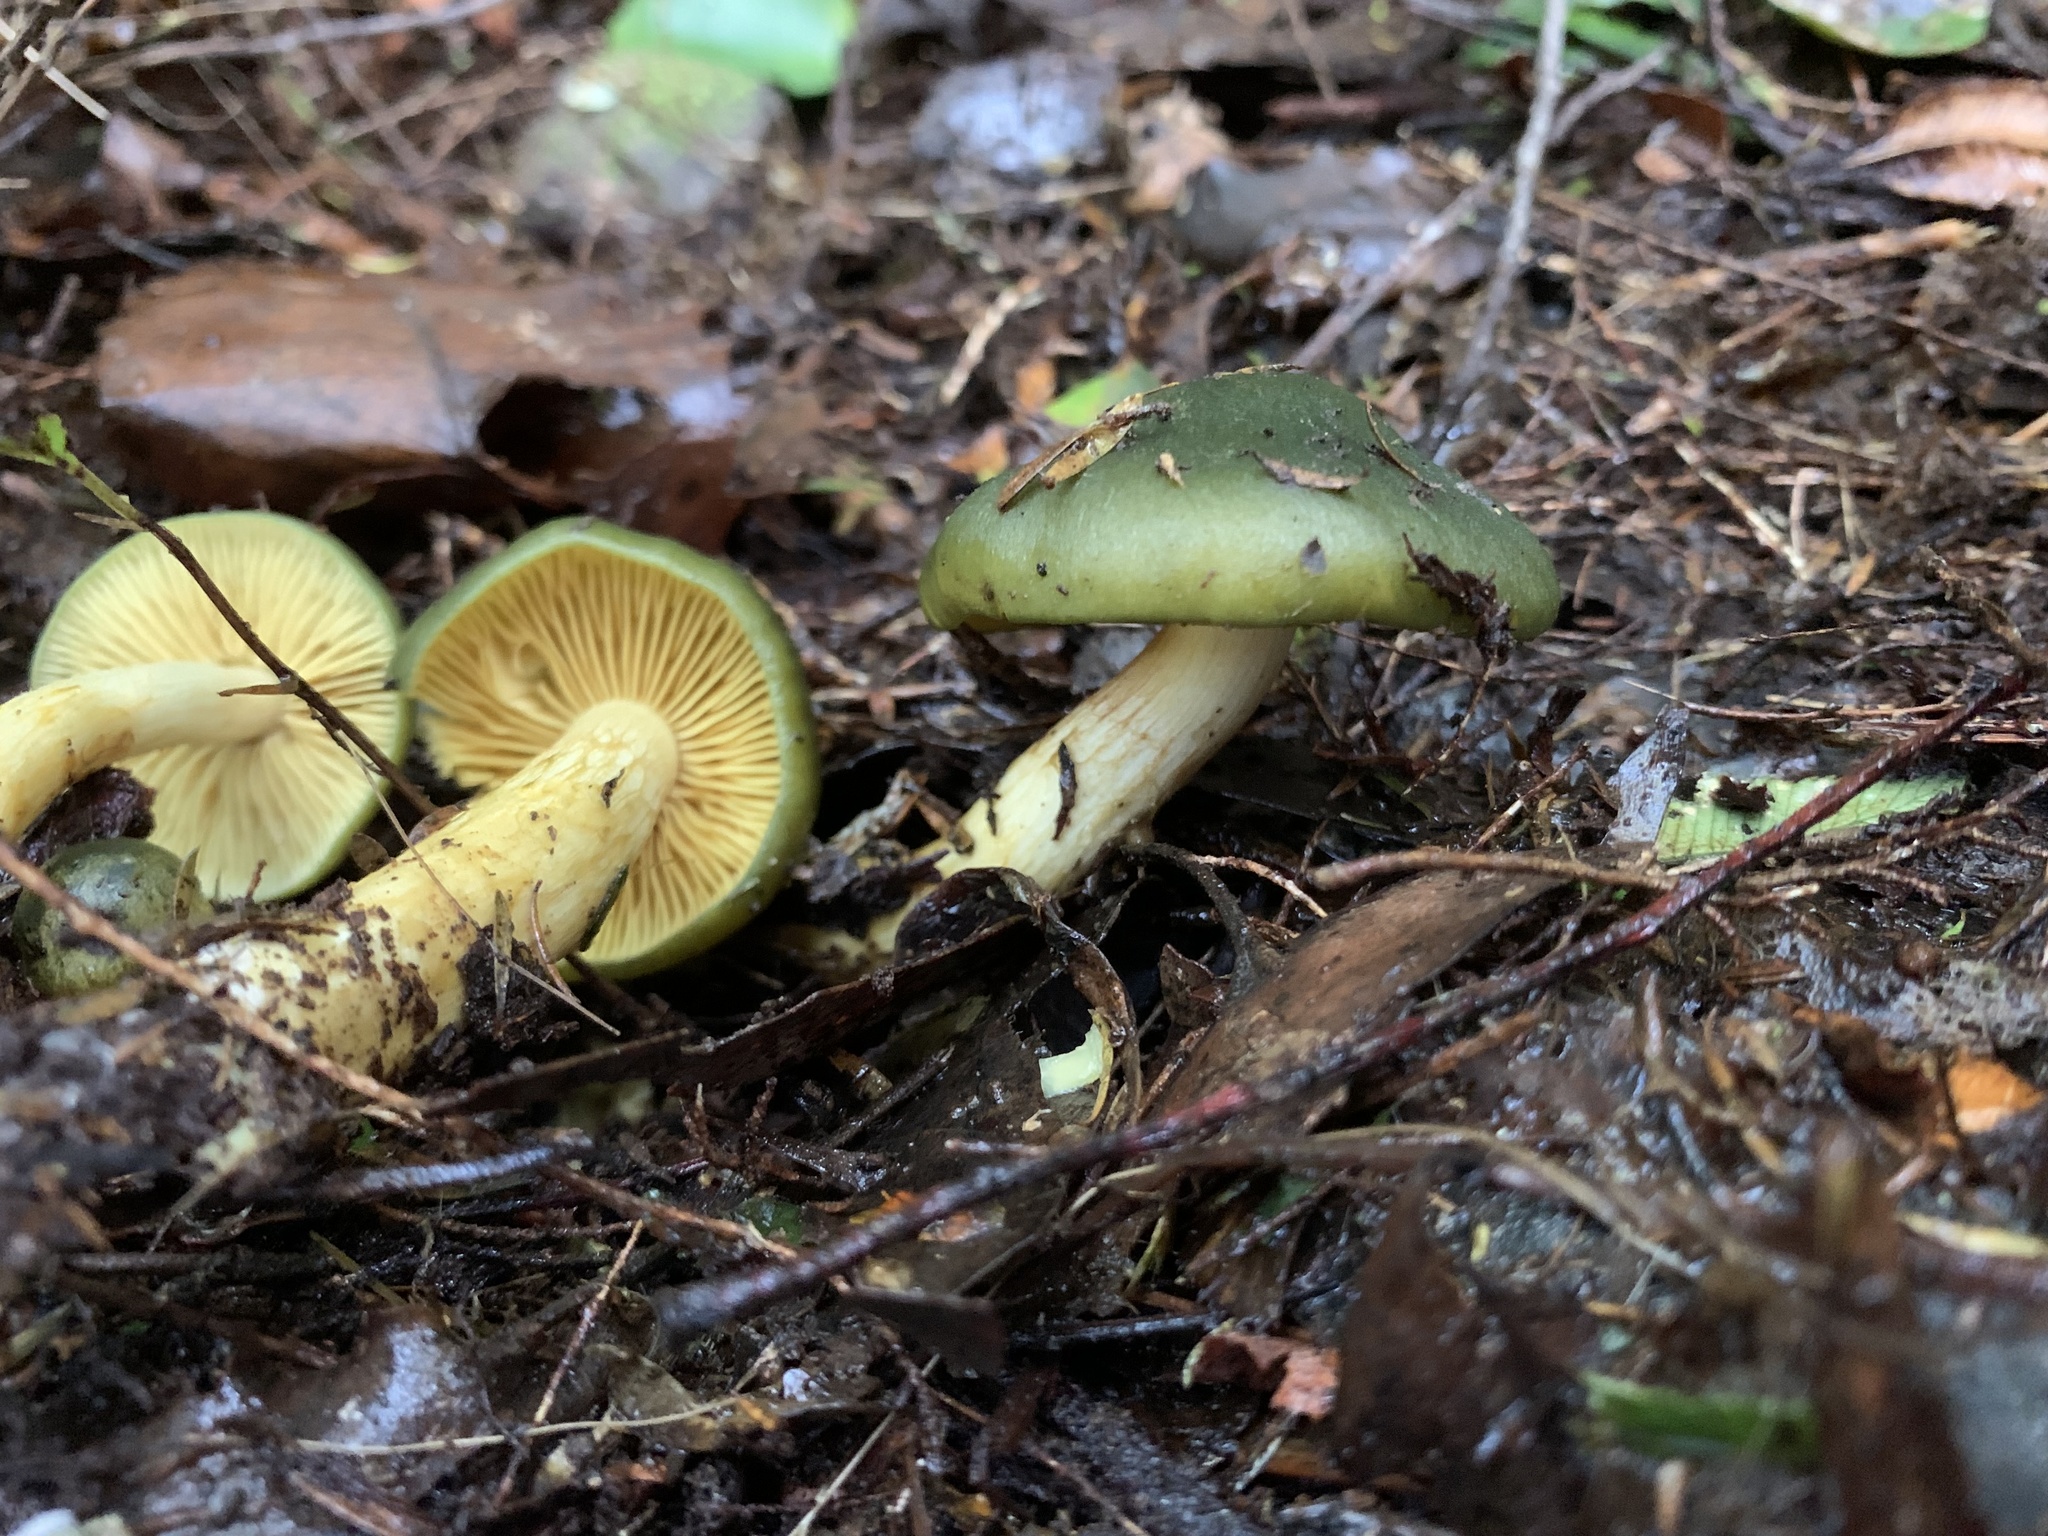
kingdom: Fungi
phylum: Basidiomycota
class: Agaricomycetes
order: Agaricales
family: Cortinariaceae
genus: Cortinarius
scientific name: Cortinarius austrovenetus
